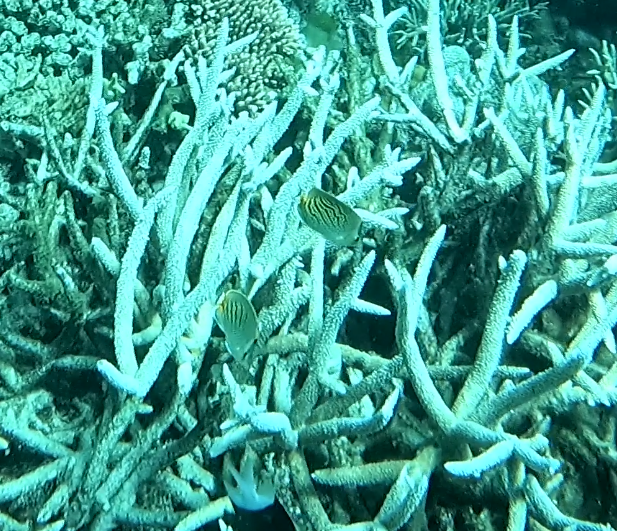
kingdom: Animalia
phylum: Chordata
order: Perciformes
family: Chaetodontidae
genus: Chaetodon
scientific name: Chaetodon pelewensis
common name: Dot-and-dash butterflyfish
